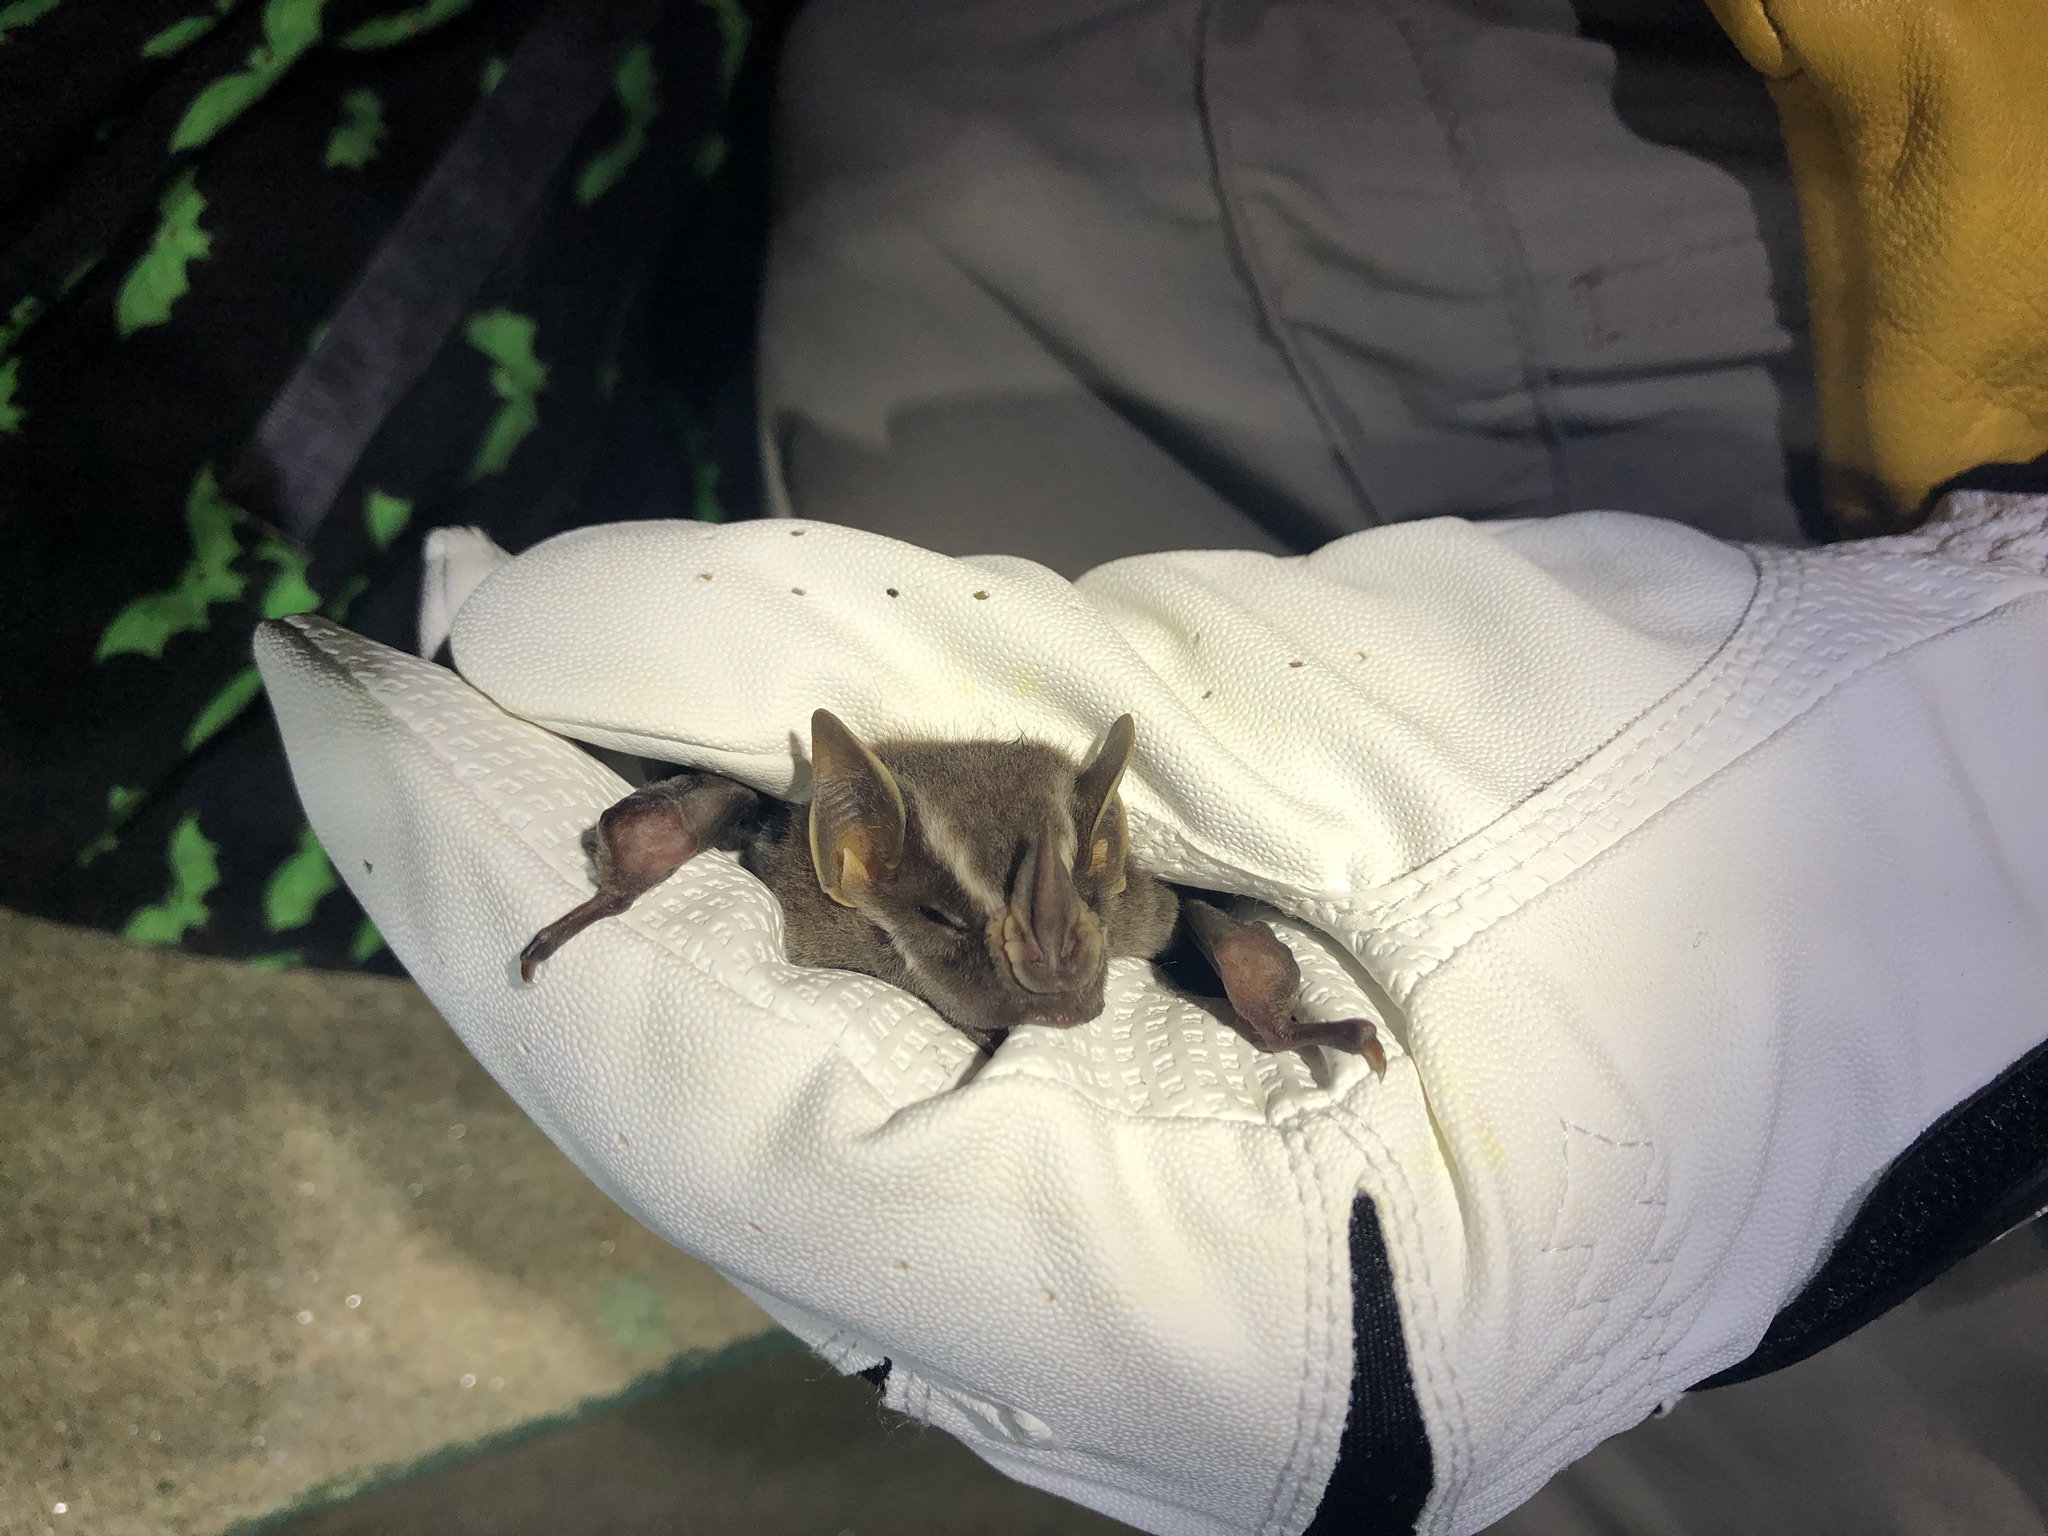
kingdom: Animalia
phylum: Chordata
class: Mammalia
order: Chiroptera
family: Phyllostomidae
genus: Uroderma
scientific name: Uroderma bilobatum
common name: Common tent-making bat
